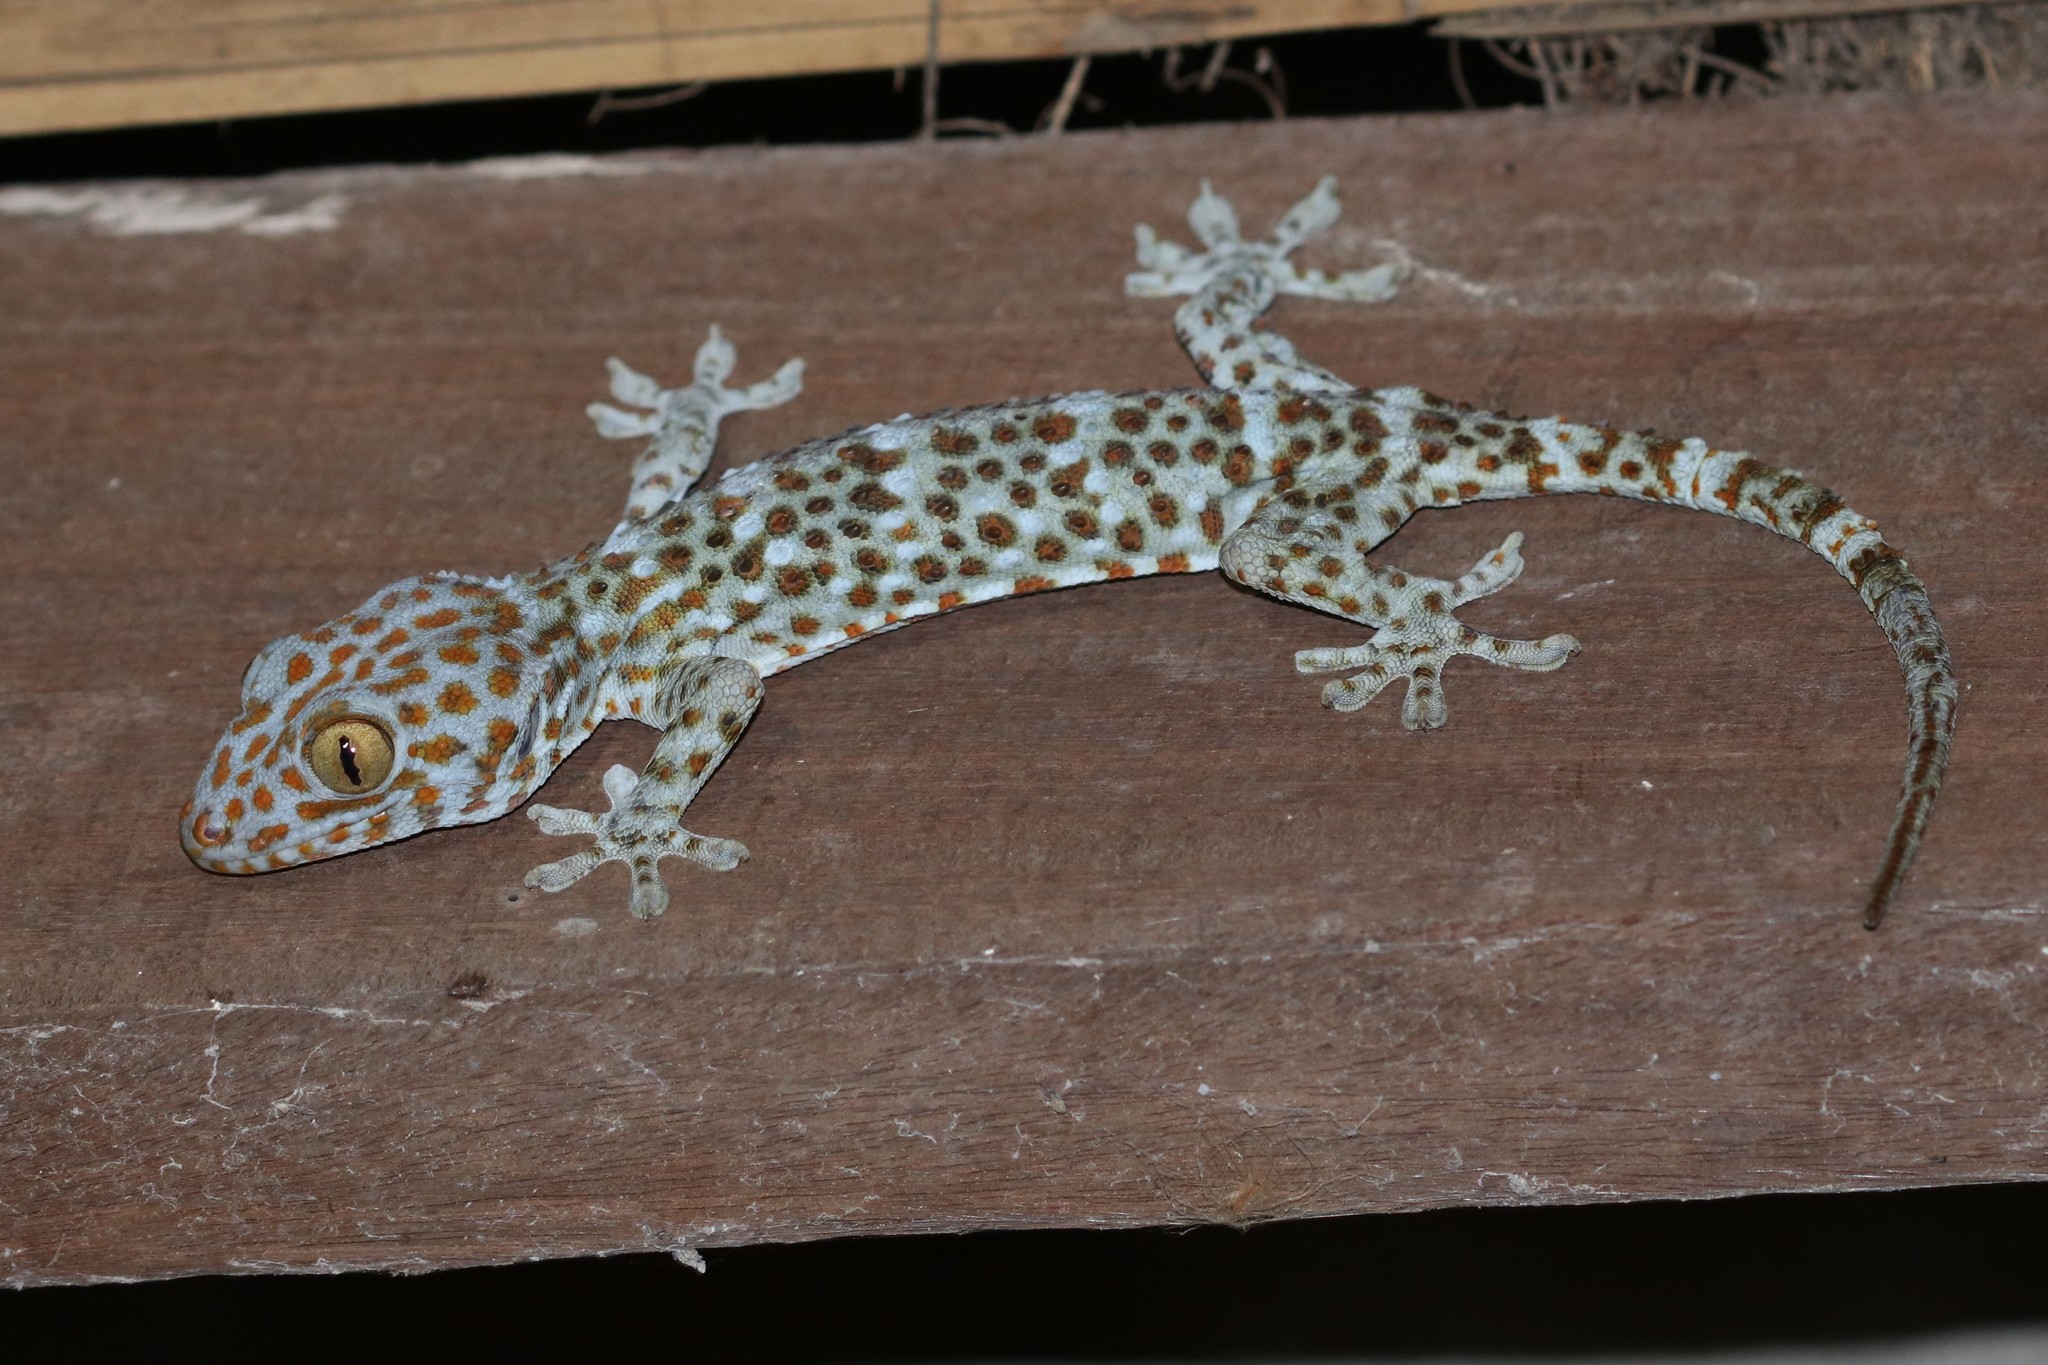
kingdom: Animalia
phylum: Chordata
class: Squamata
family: Gekkonidae
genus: Gekko
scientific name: Gekko gecko
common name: Tokay gecko
